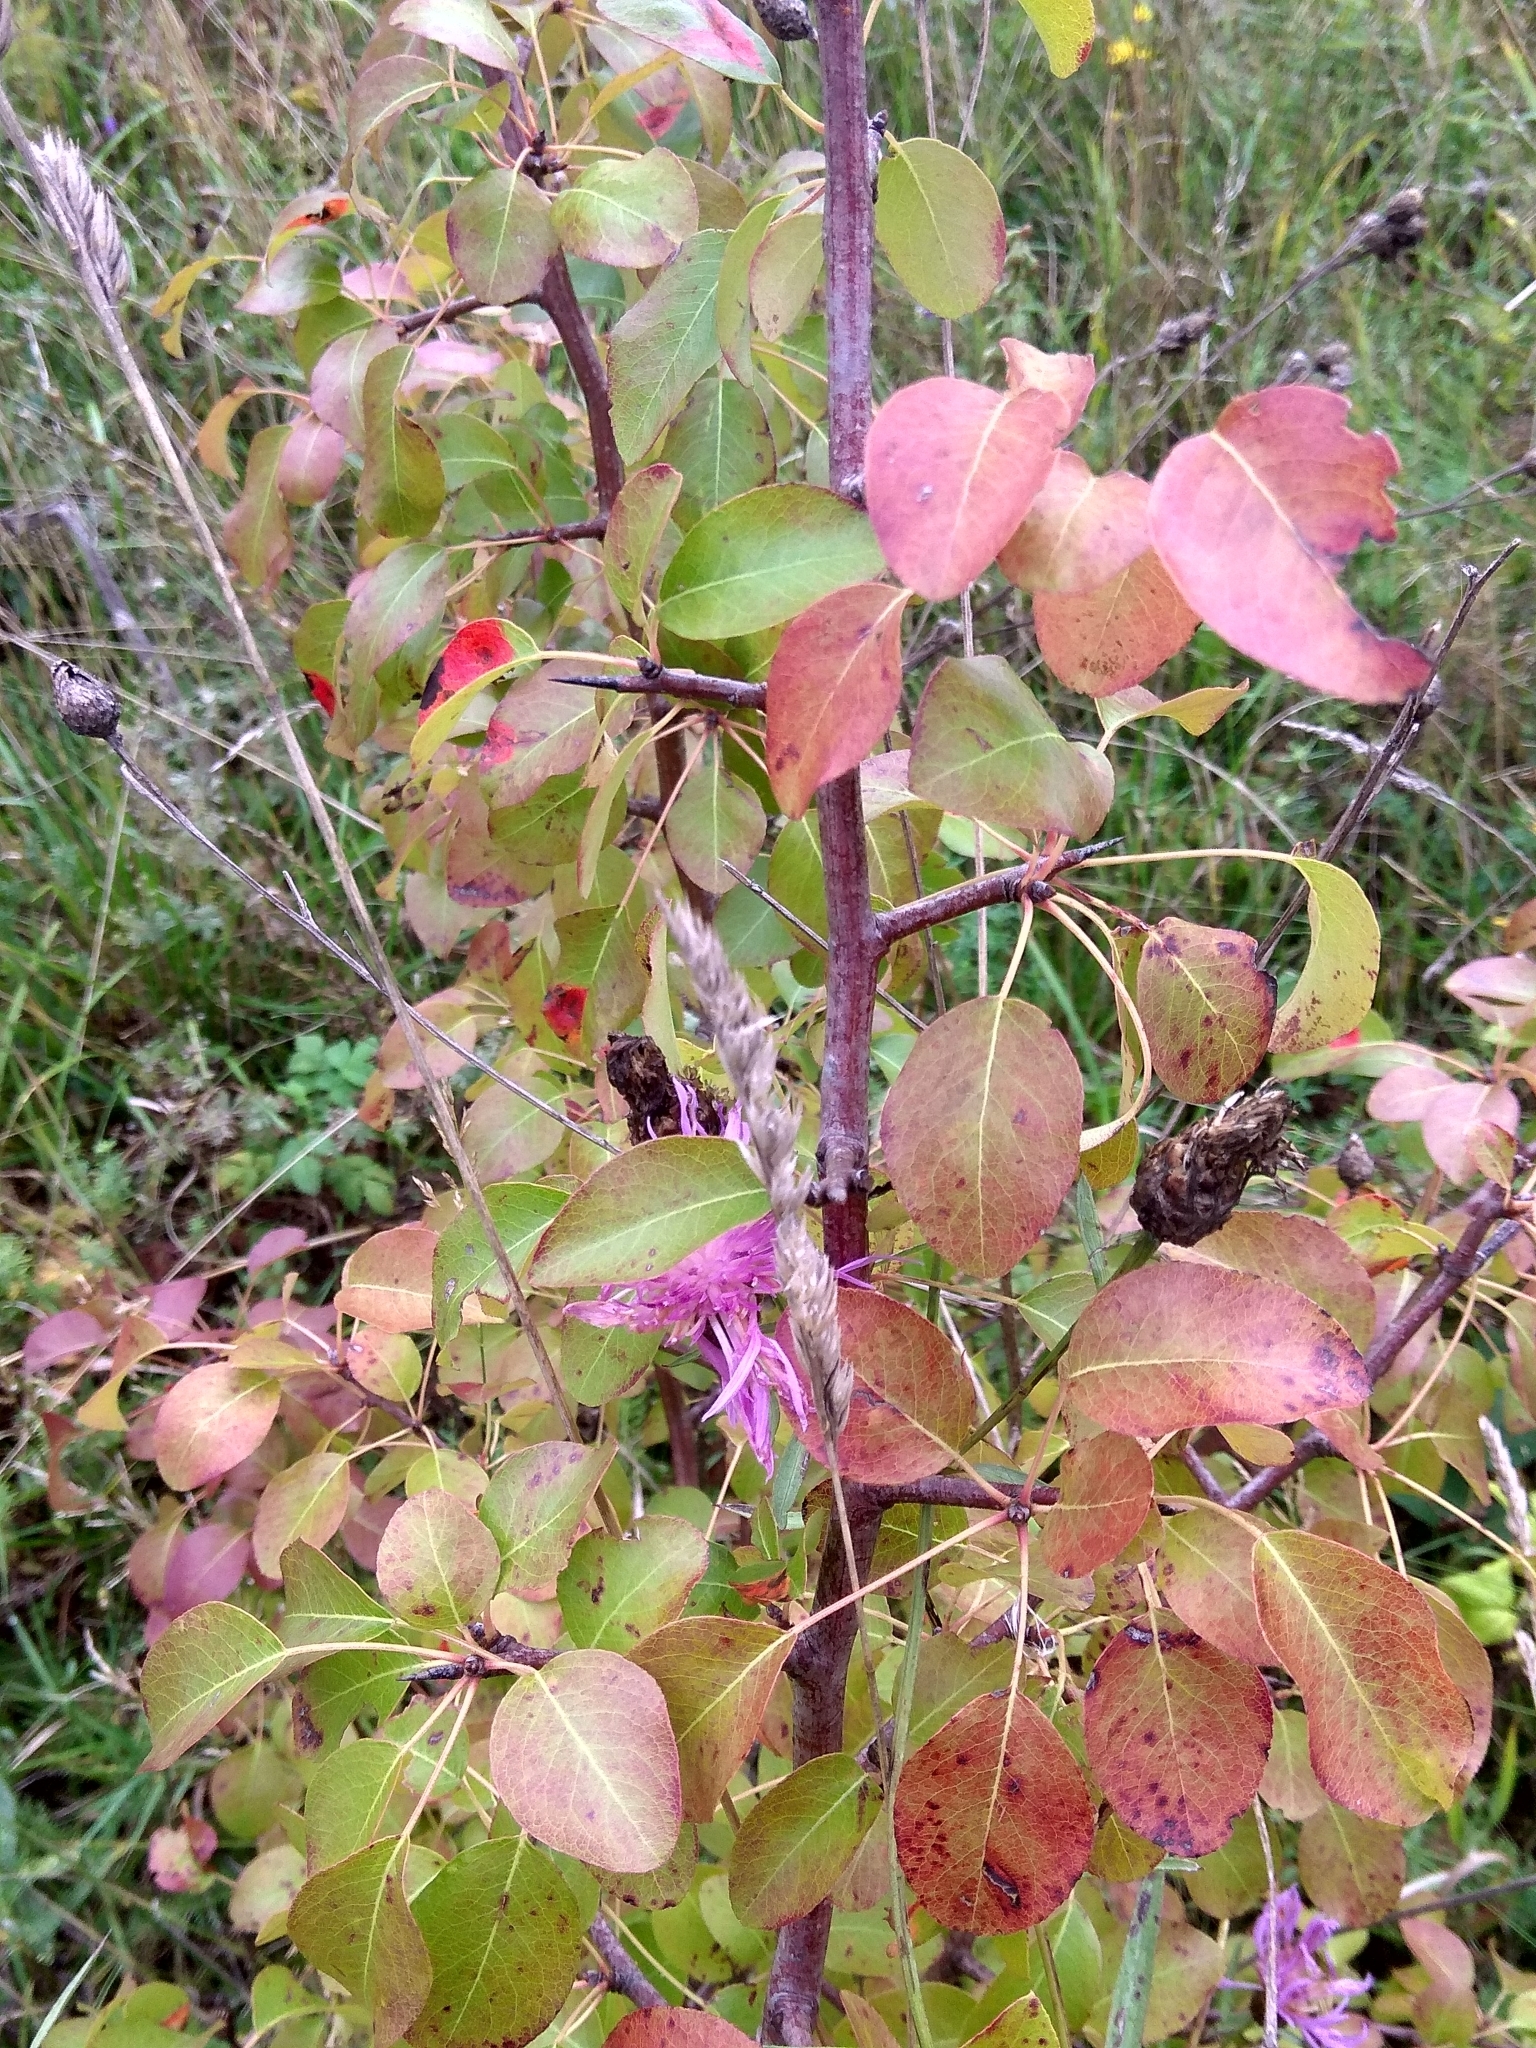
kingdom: Plantae
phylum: Tracheophyta
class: Magnoliopsida
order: Rosales
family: Rosaceae
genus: Pyrus
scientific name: Pyrus communis
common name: Pear
